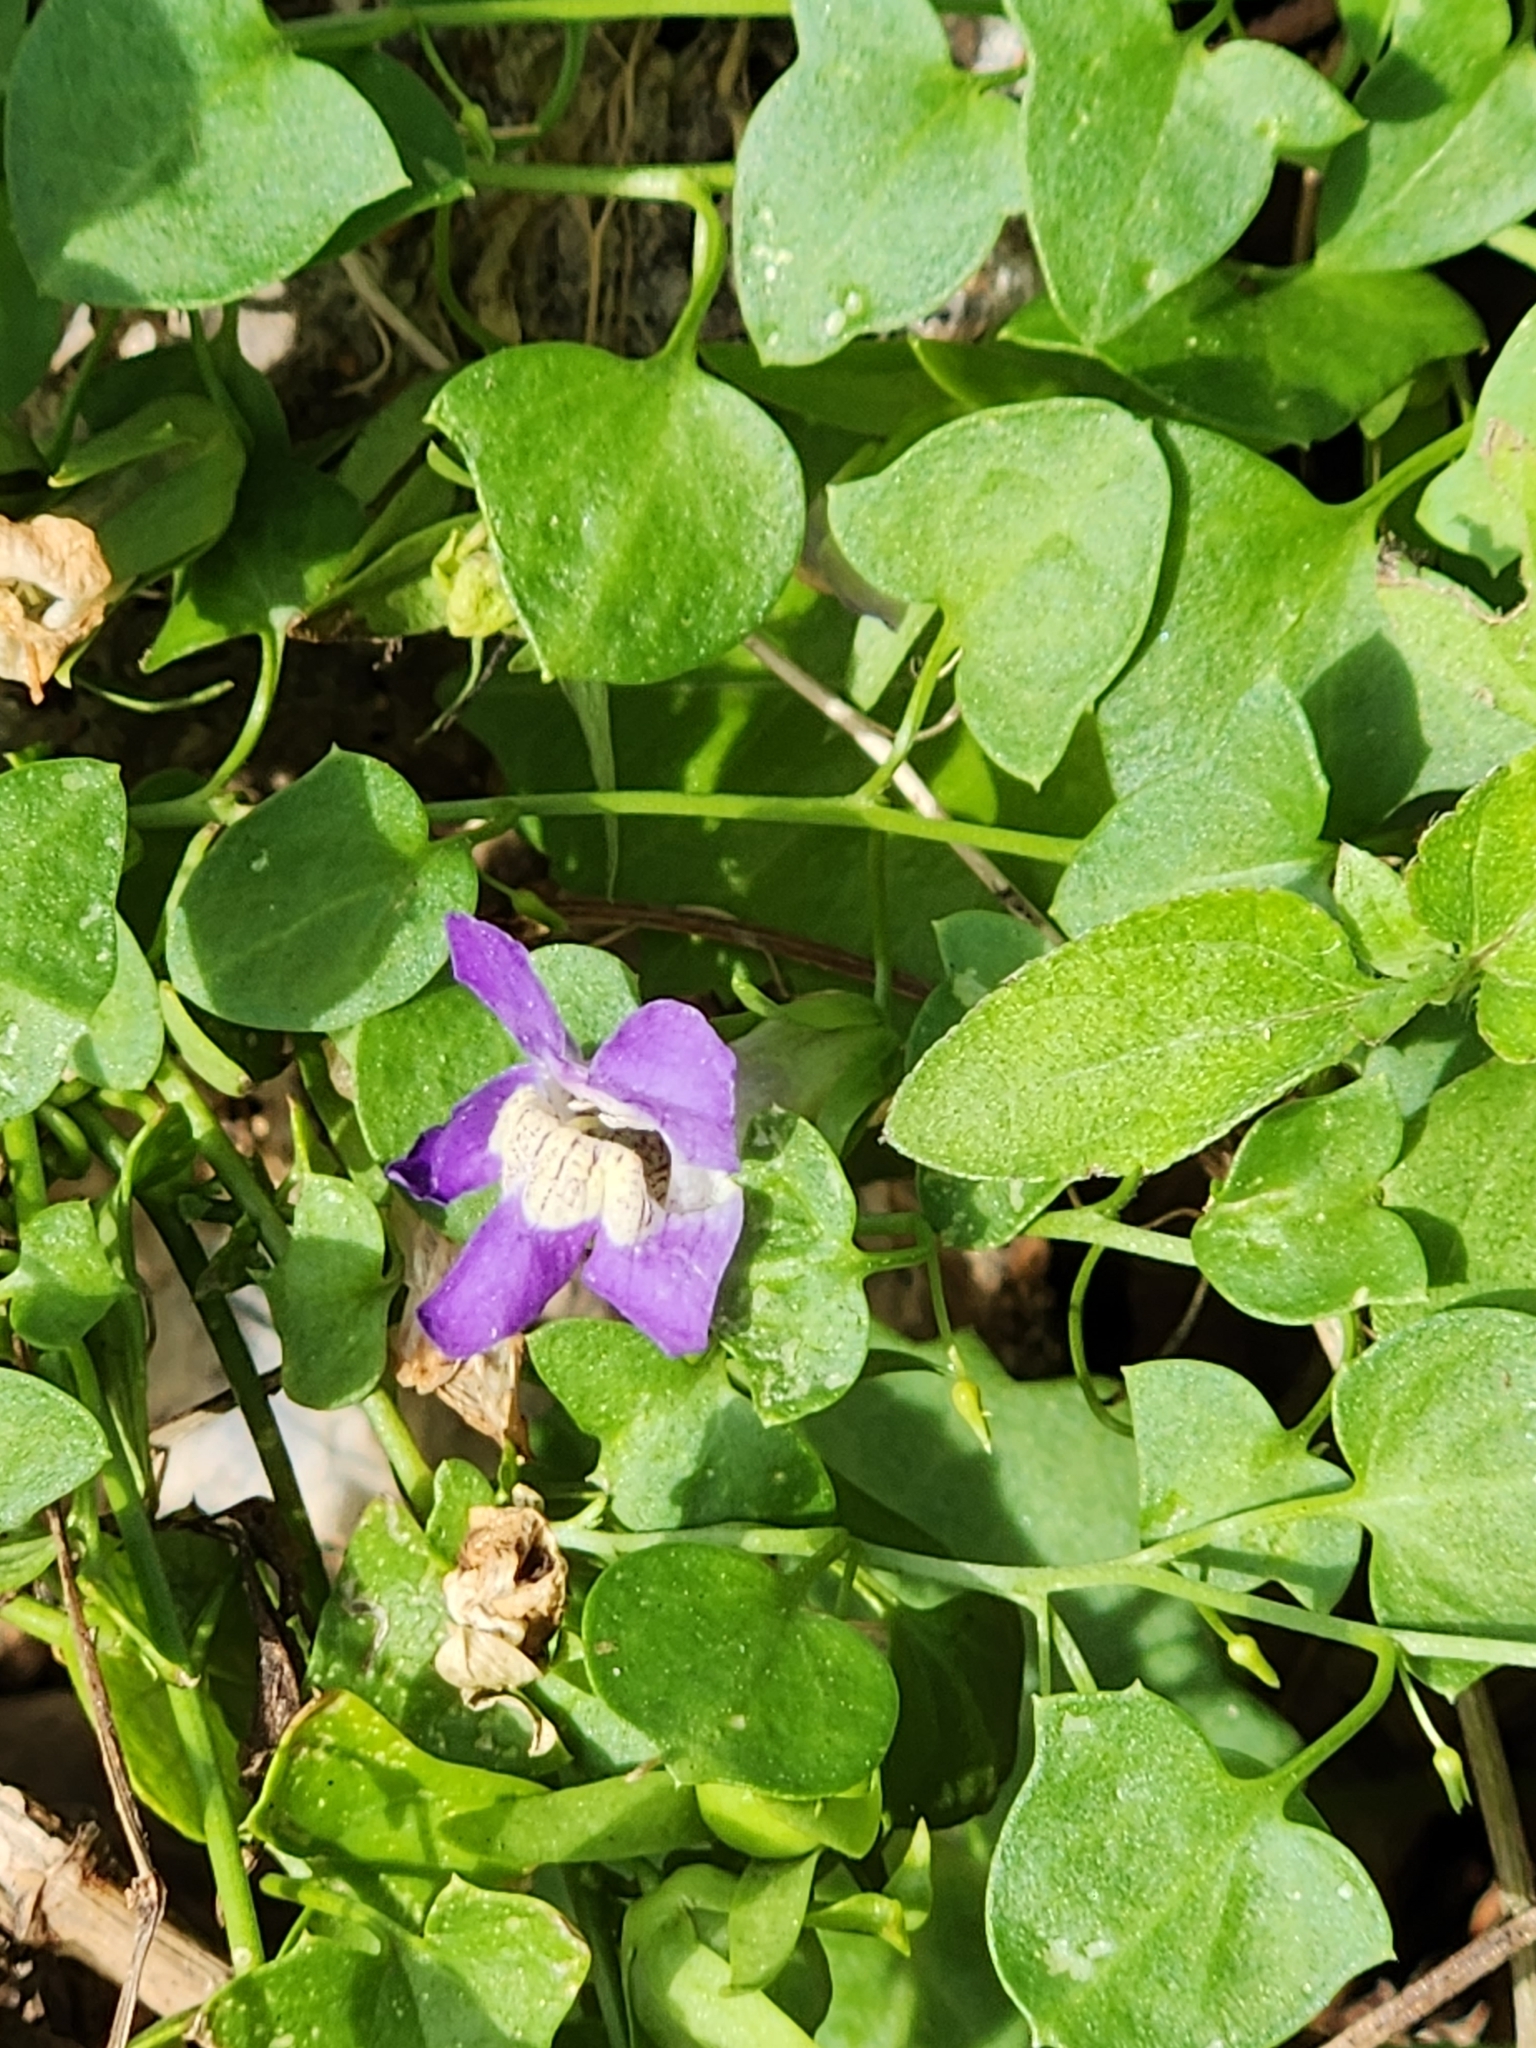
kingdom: Plantae
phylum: Tracheophyta
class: Magnoliopsida
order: Lamiales
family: Plantaginaceae
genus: Maurandella
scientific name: Maurandella antirrhiniflora
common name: Violet twining-snapdragon
